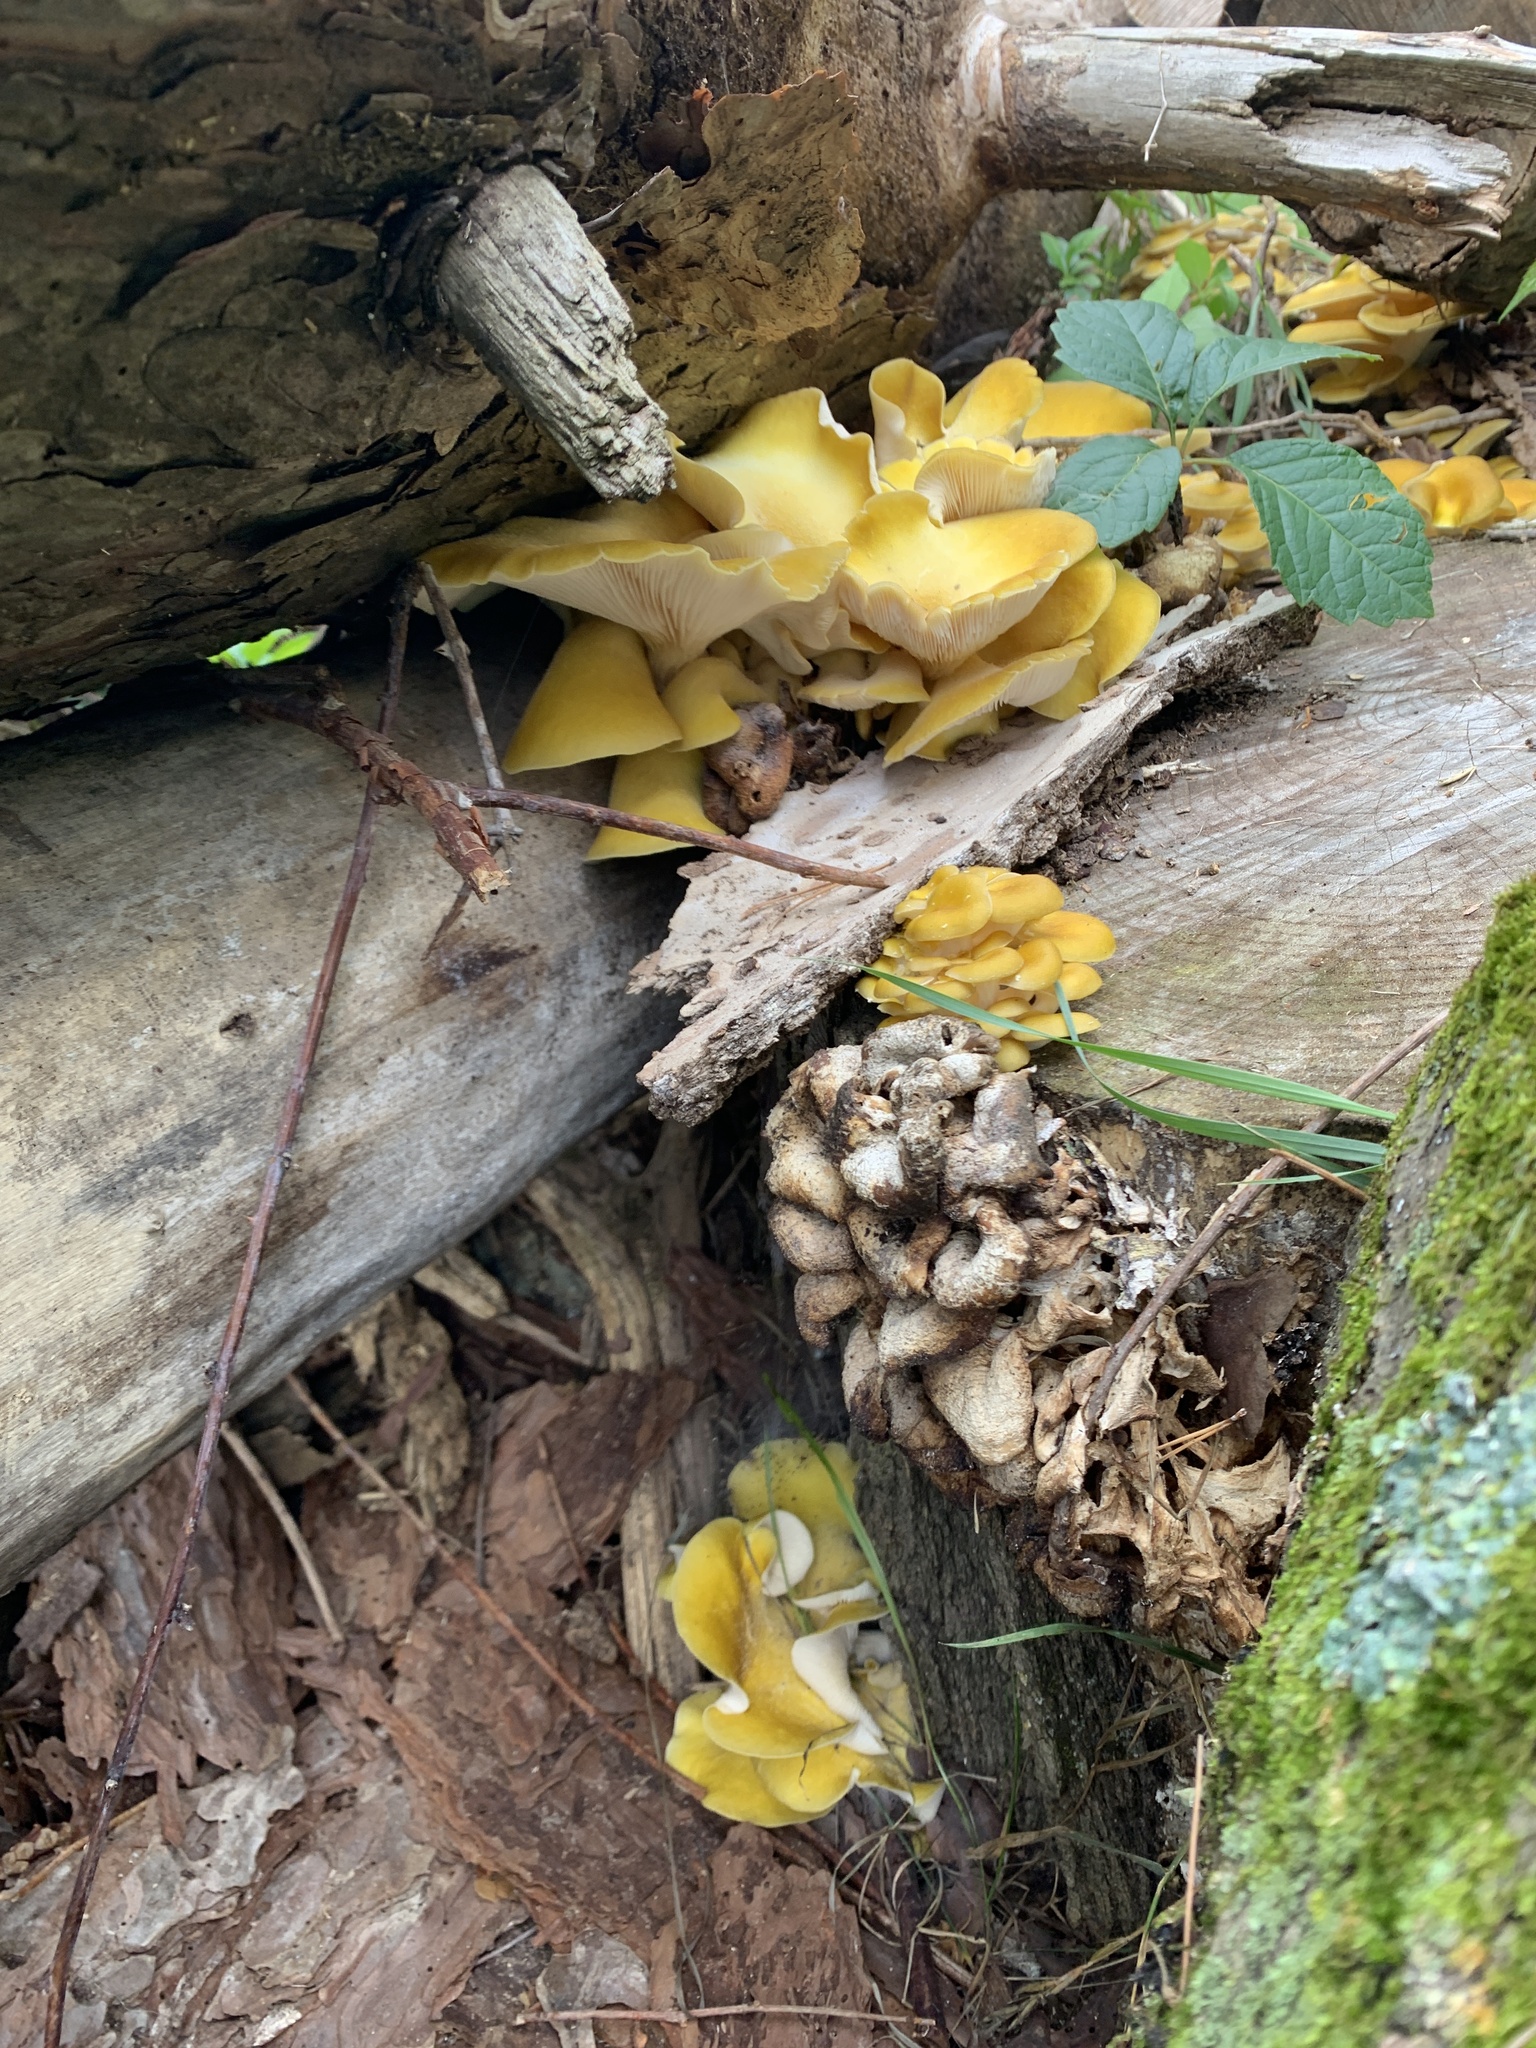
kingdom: Fungi
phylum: Basidiomycota
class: Agaricomycetes
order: Agaricales
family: Pleurotaceae
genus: Pleurotus
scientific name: Pleurotus citrinopileatus
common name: Golden oyster mushroom
